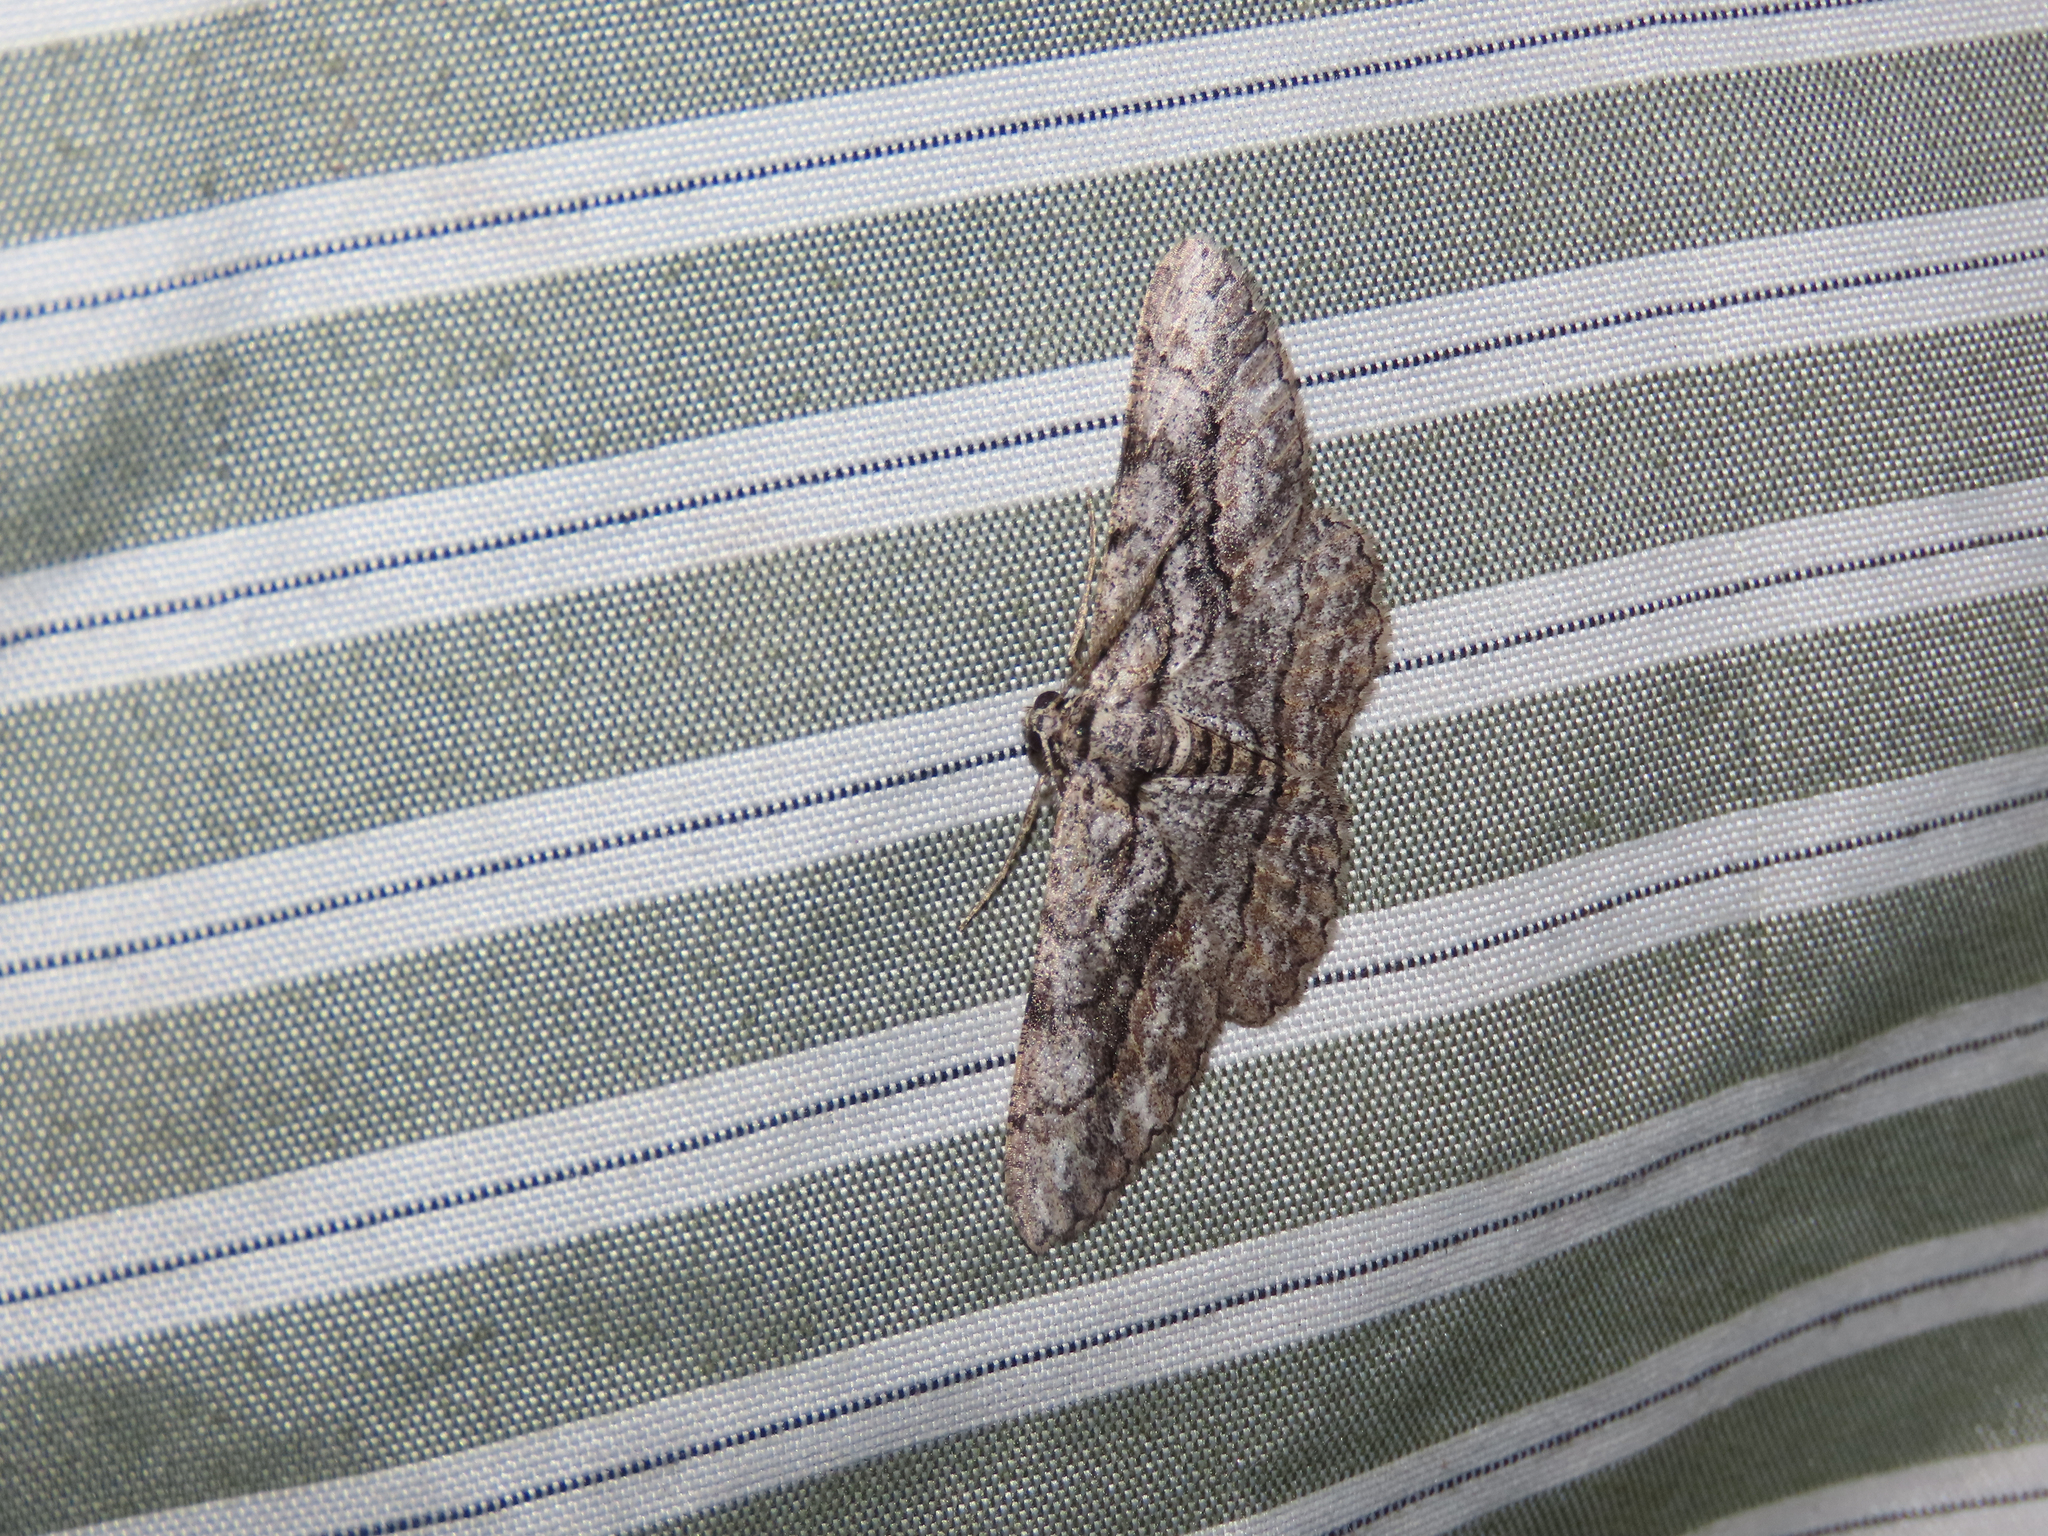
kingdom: Animalia
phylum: Arthropoda
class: Insecta
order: Lepidoptera
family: Geometridae
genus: Anavitrinella
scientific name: Anavitrinella pampinaria
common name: Common gray
